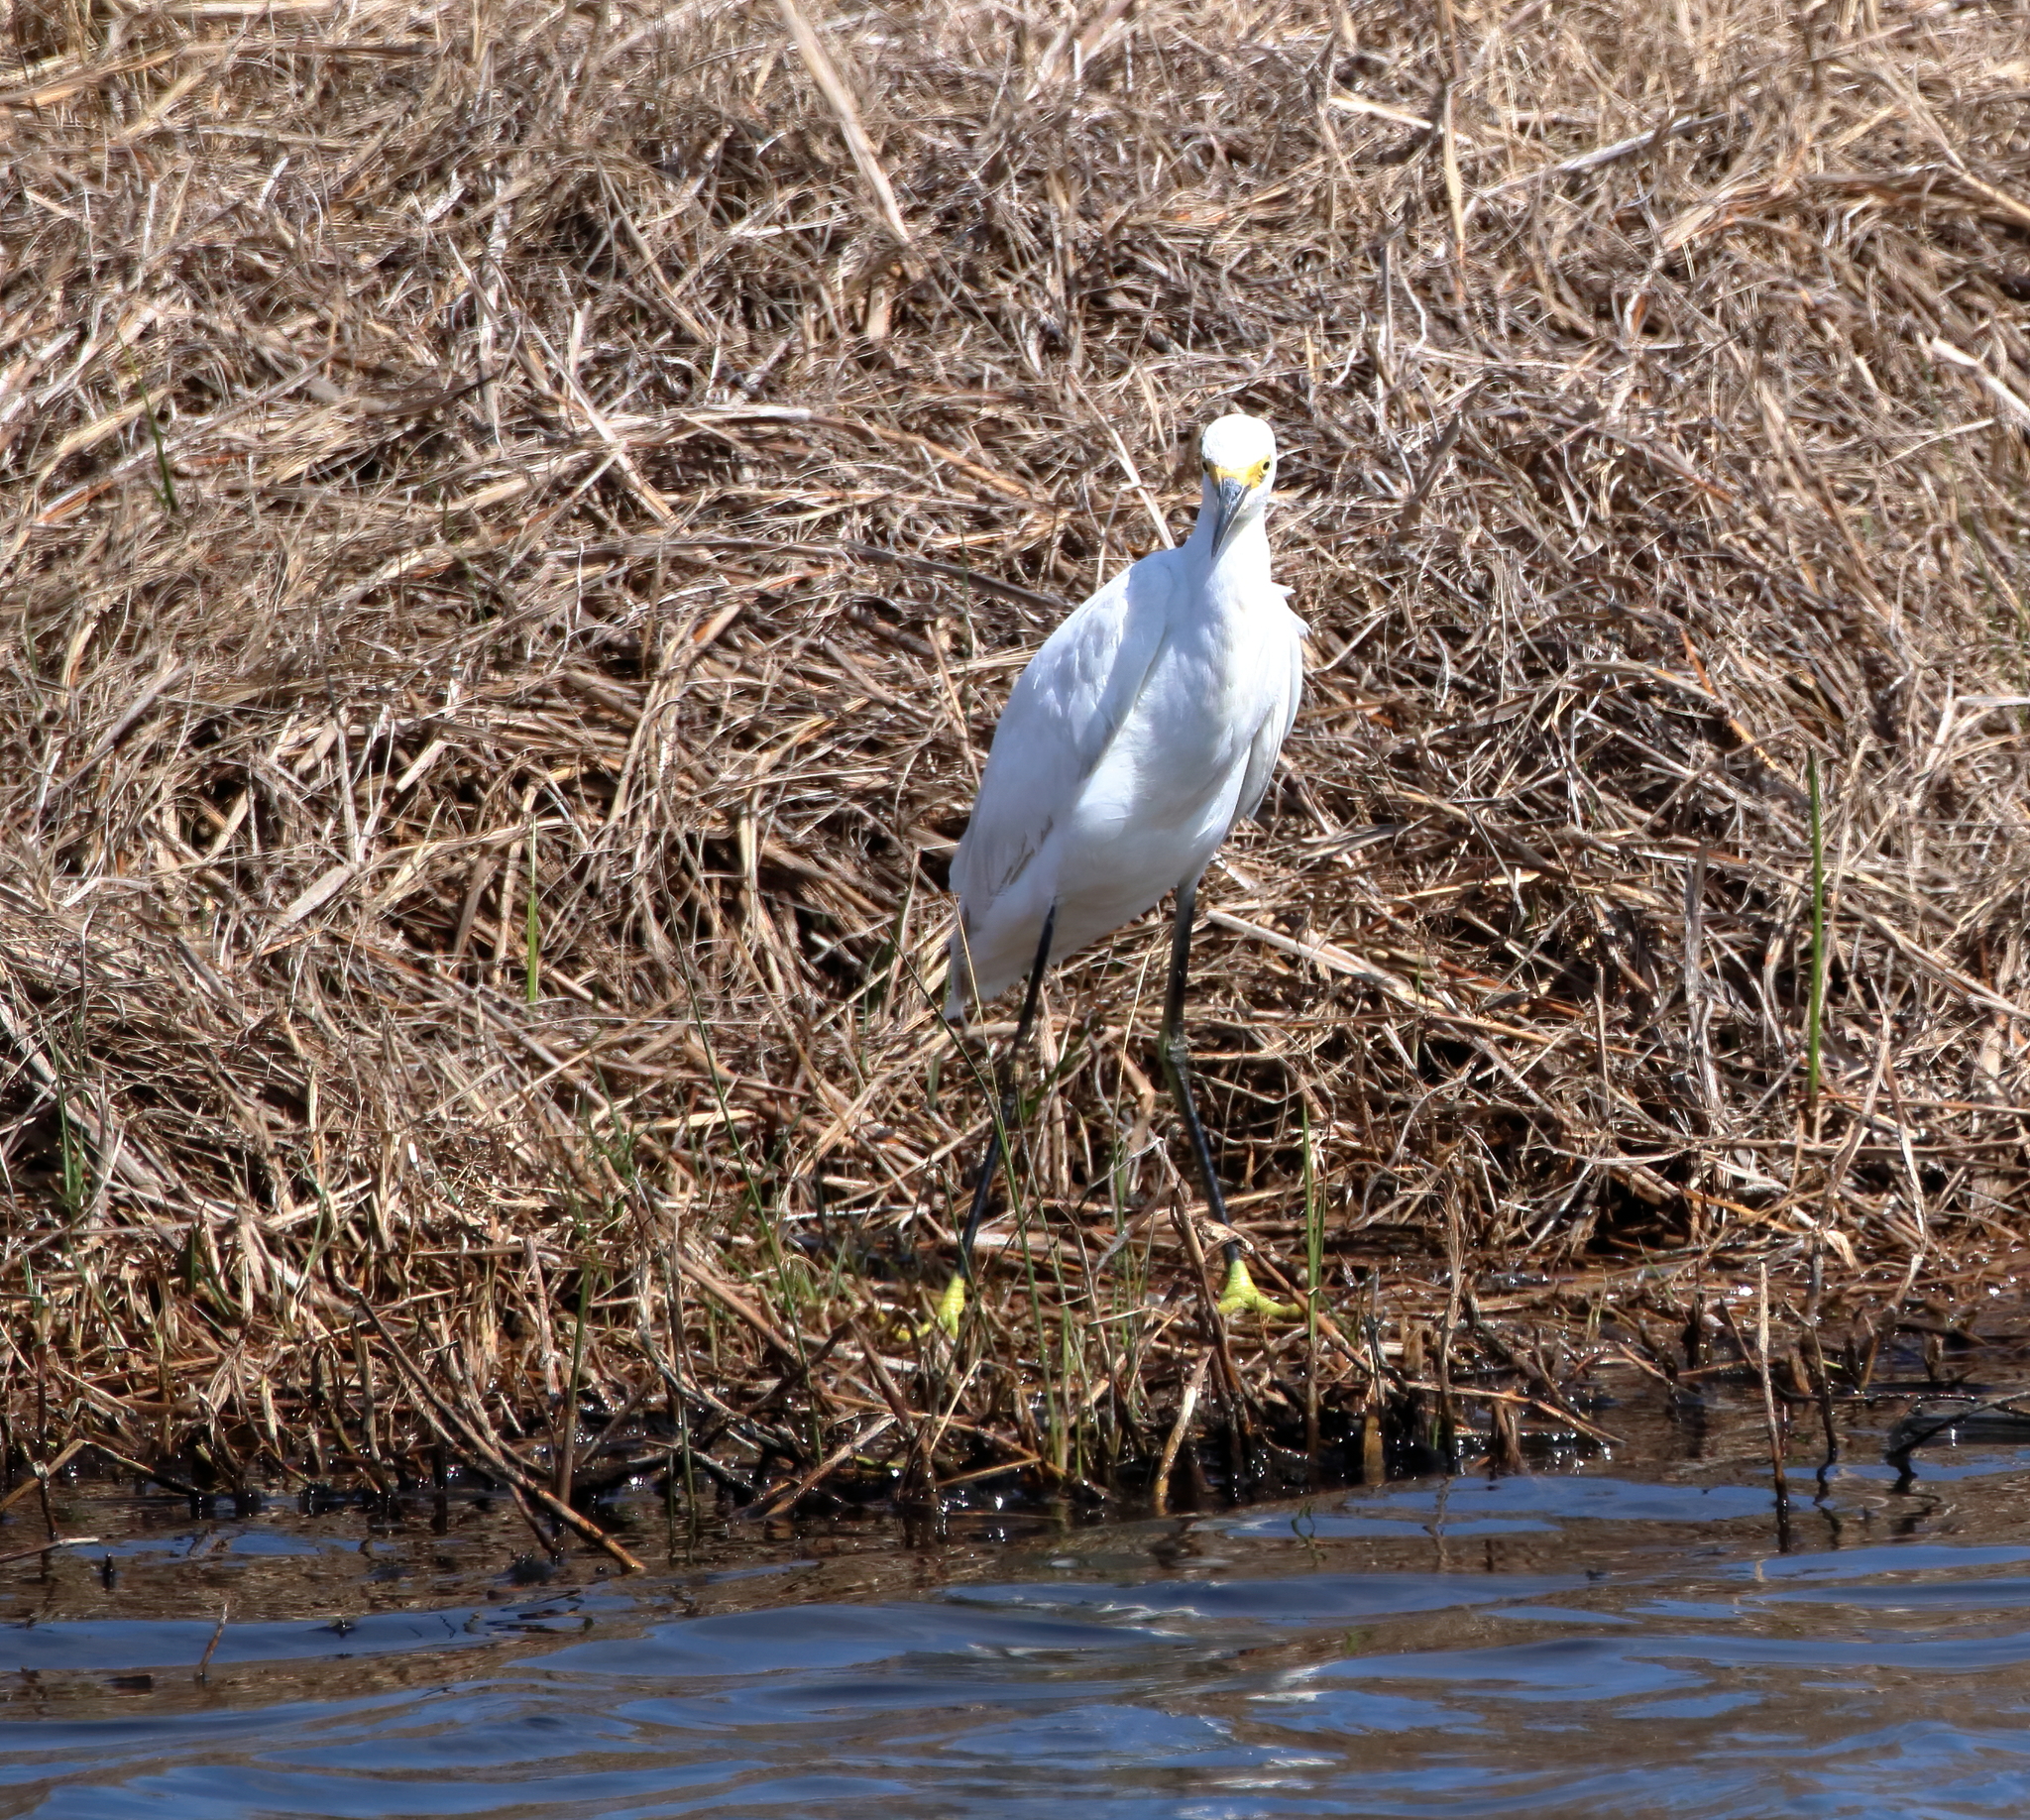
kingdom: Animalia
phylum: Chordata
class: Aves
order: Pelecaniformes
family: Ardeidae
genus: Egretta
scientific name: Egretta thula
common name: Snowy egret
